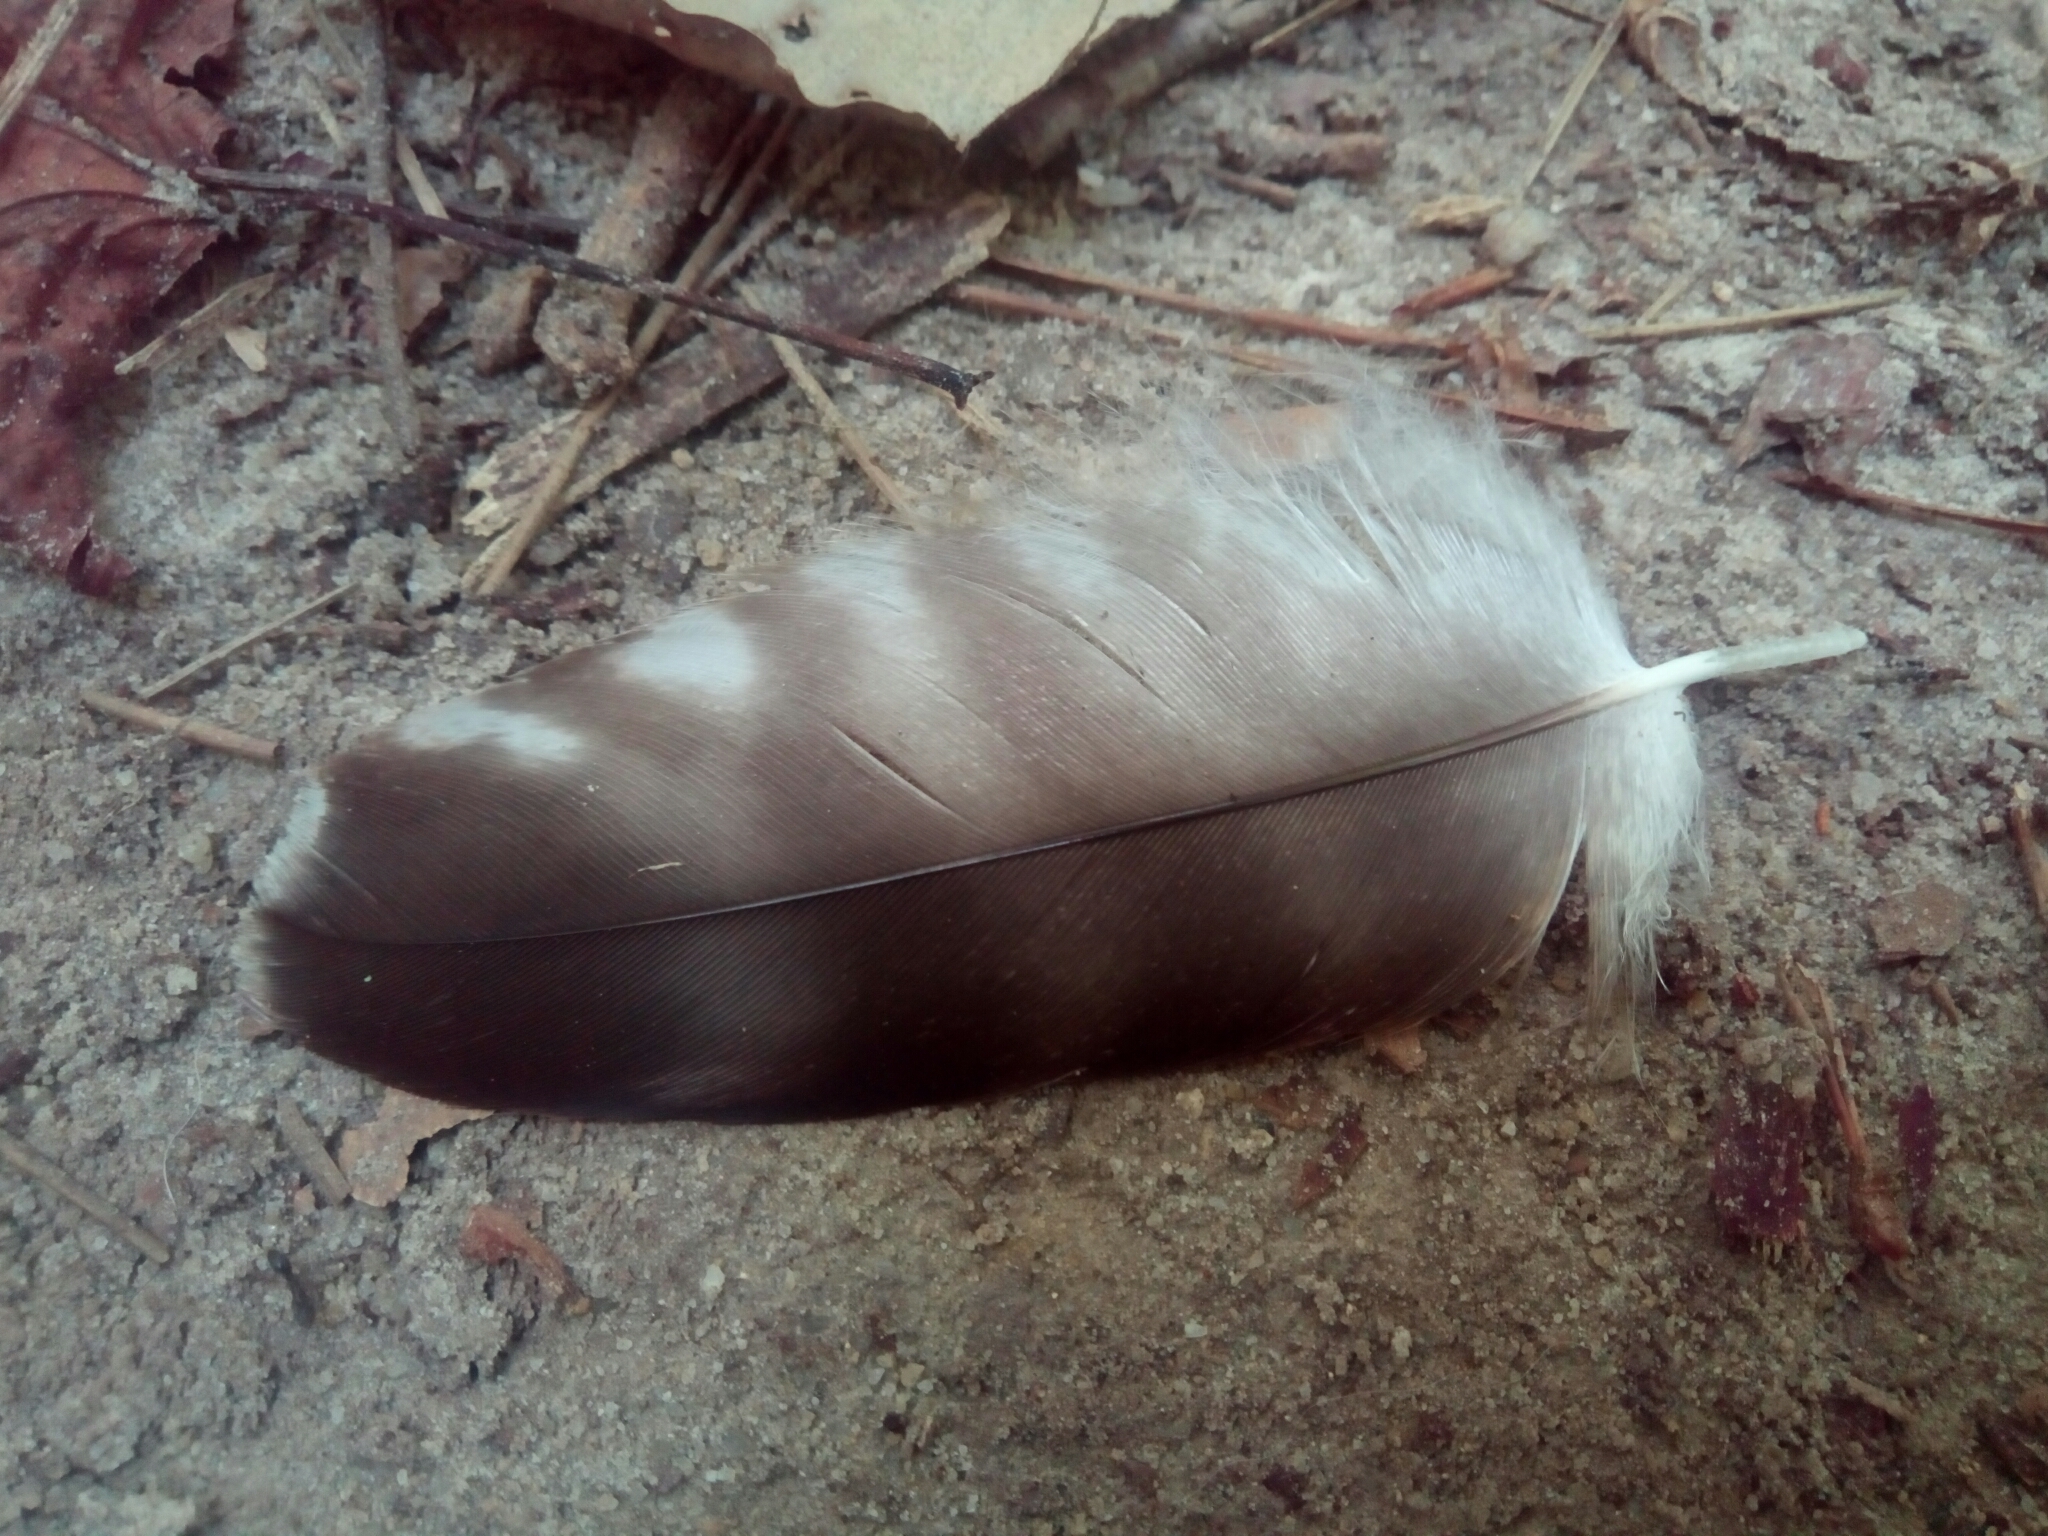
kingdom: Animalia
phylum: Chordata
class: Aves
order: Accipitriformes
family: Accipitridae
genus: Buteo
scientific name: Buteo jamaicensis
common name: Red-tailed hawk
